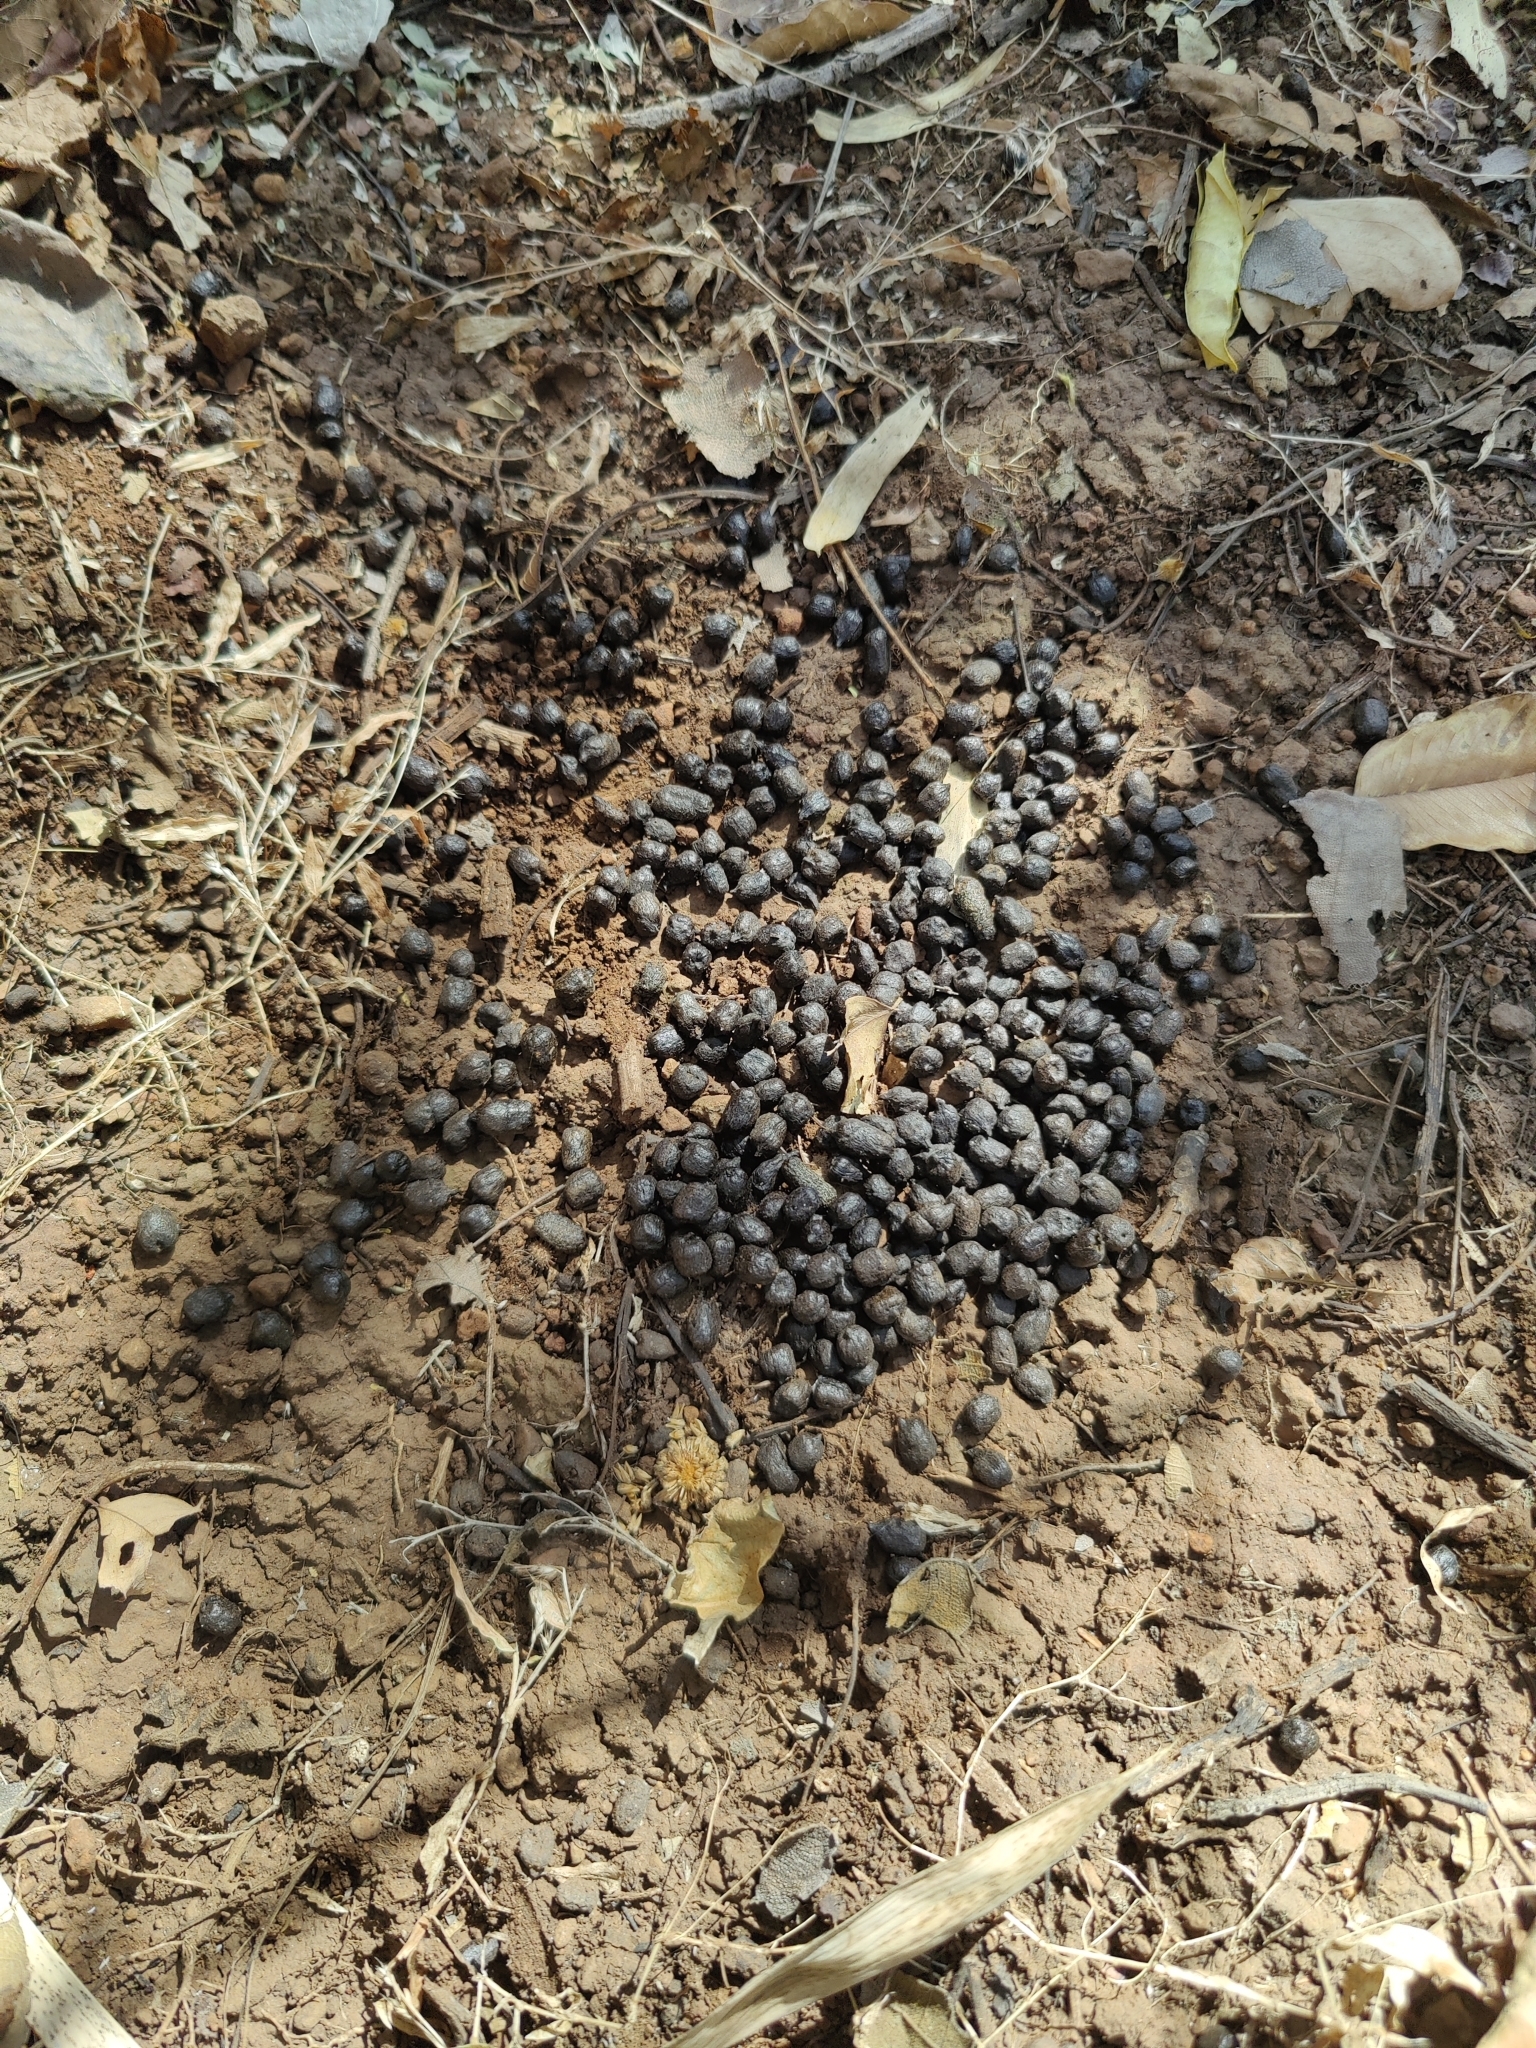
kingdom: Animalia
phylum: Chordata
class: Mammalia
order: Artiodactyla
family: Bovidae
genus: Tetracerus
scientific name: Tetracerus quadricornis
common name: Four-horned antelope
